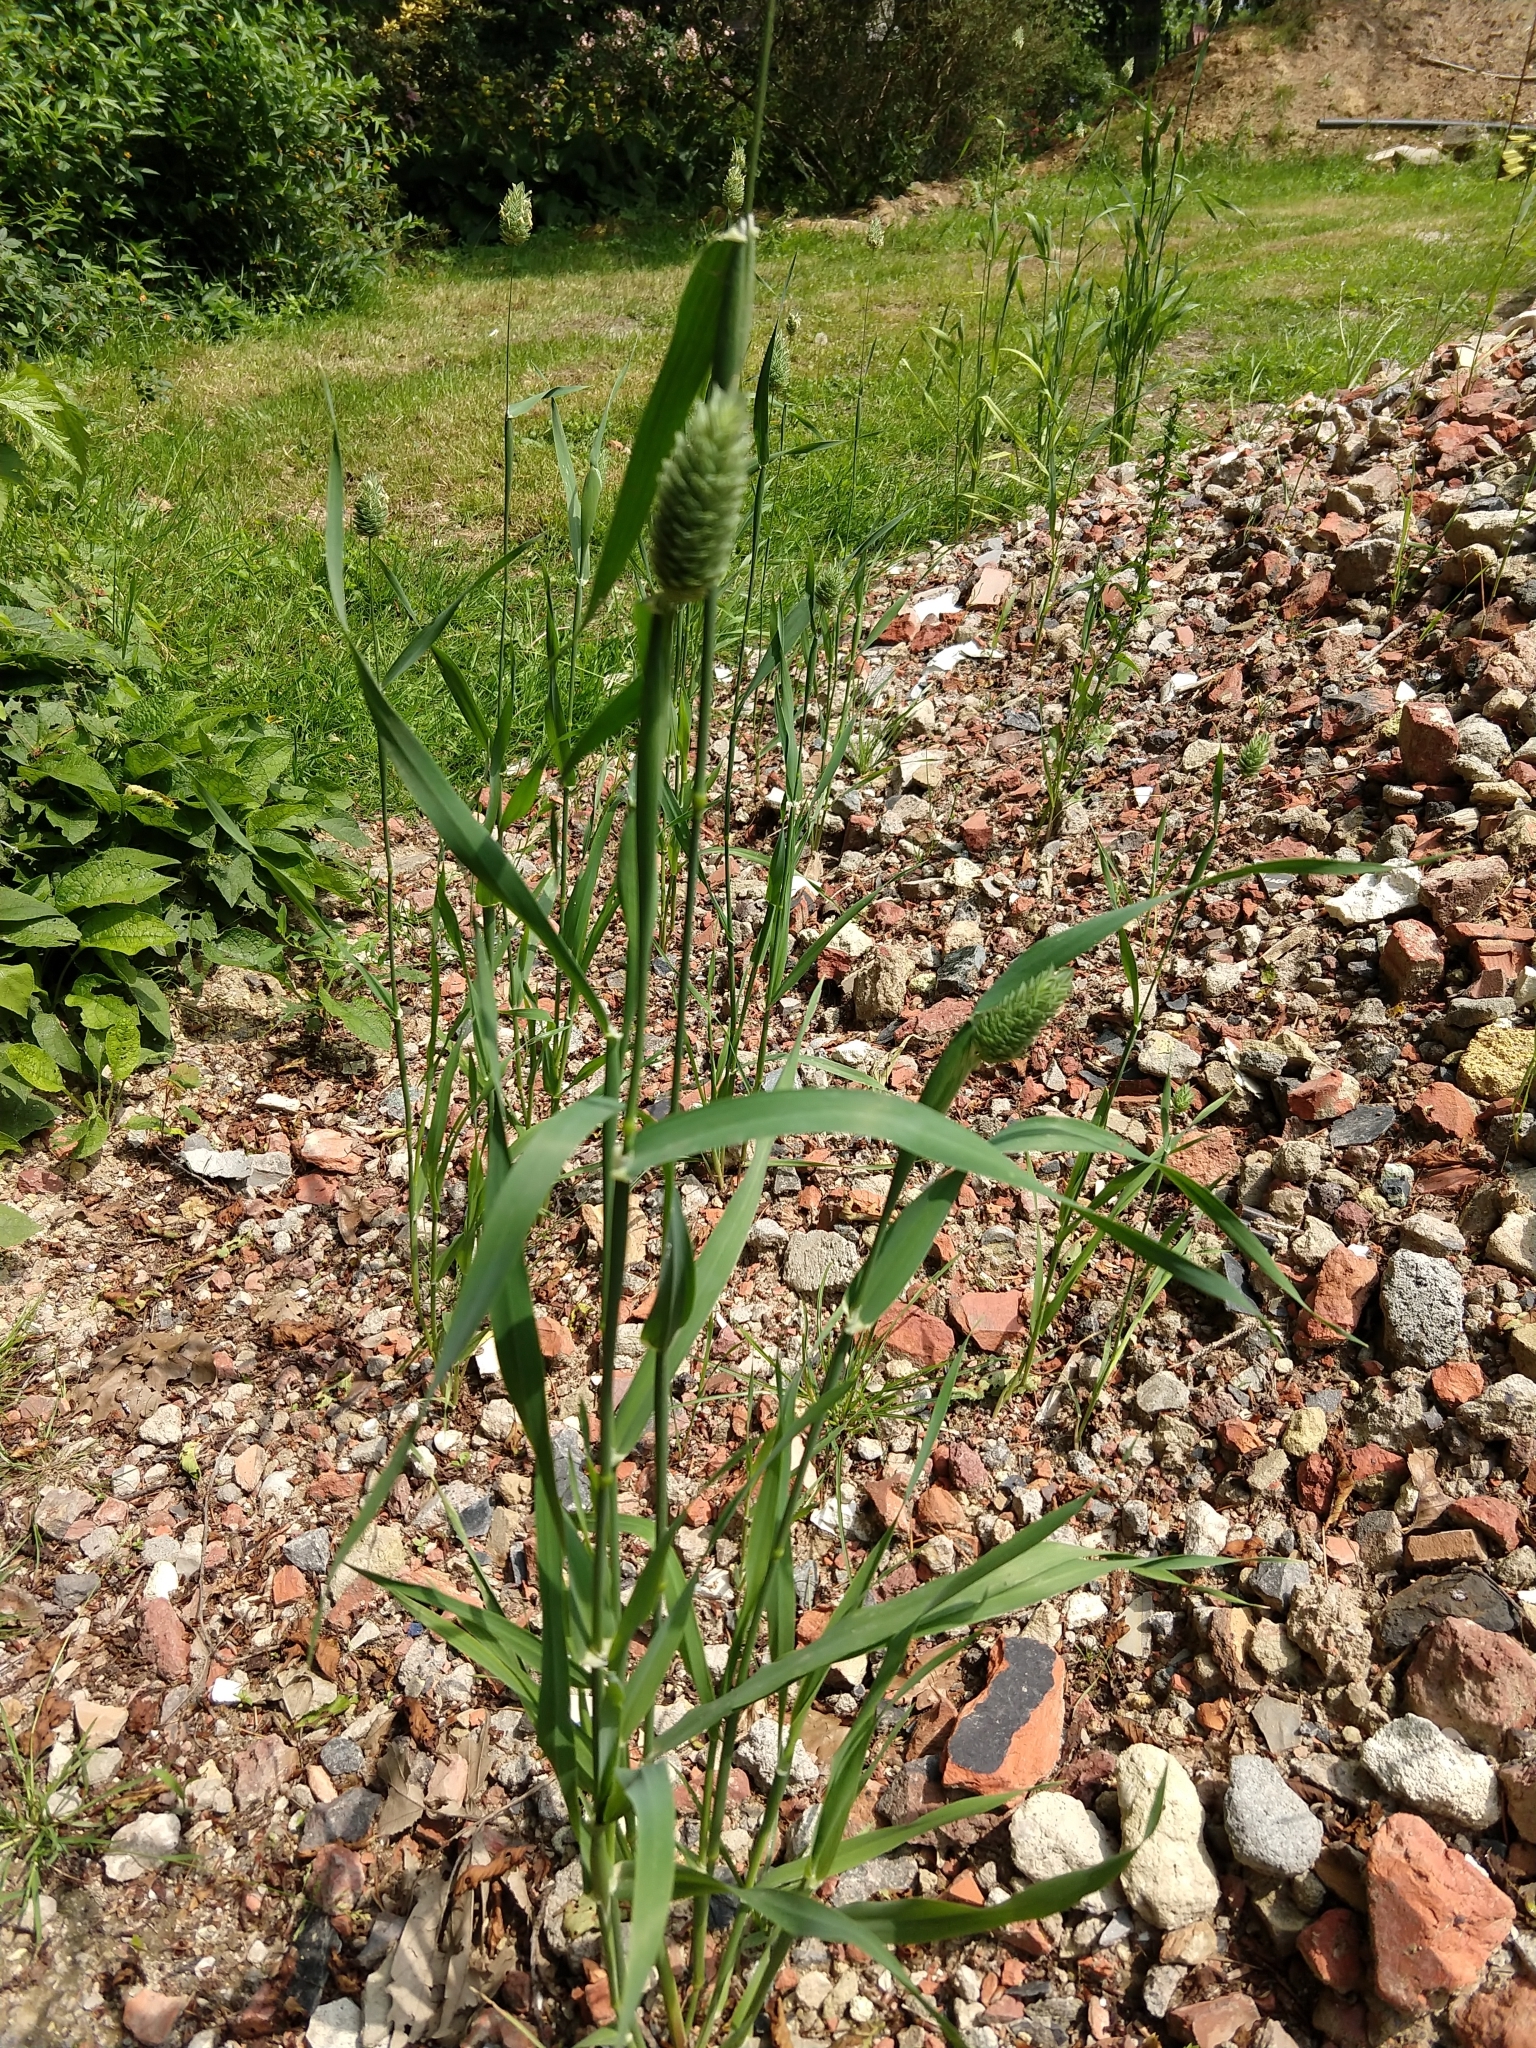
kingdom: Plantae
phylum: Tracheophyta
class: Liliopsida
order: Poales
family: Poaceae
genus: Phalaris
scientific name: Phalaris canariensis
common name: Annual canarygrass
